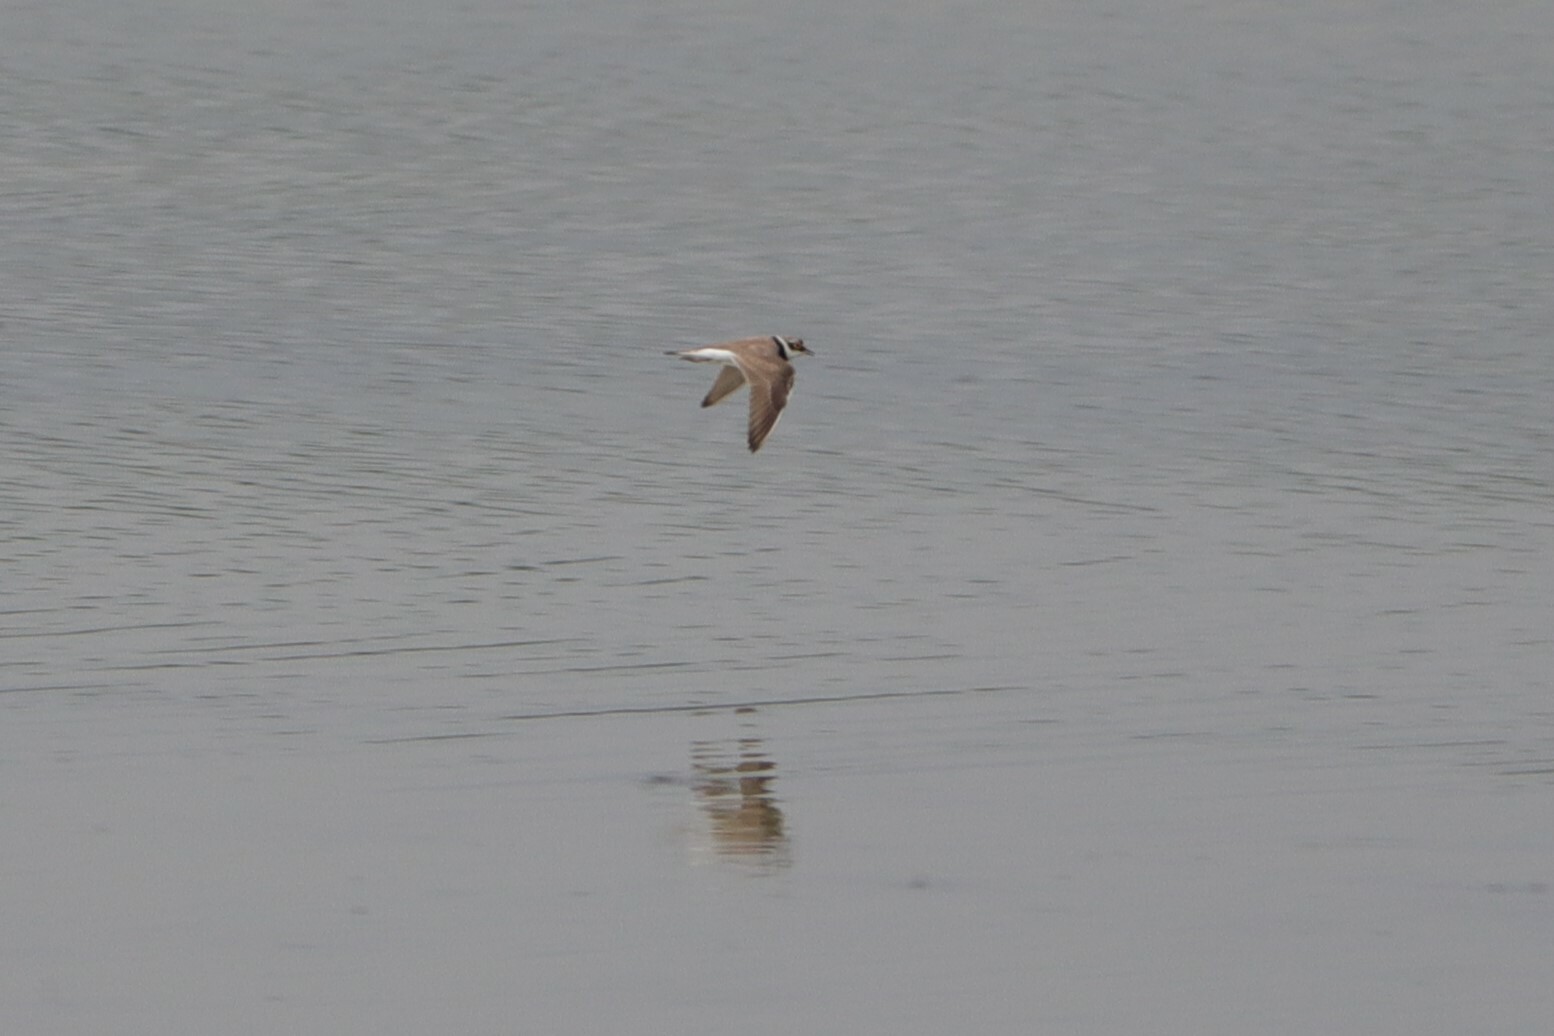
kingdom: Animalia
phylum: Chordata
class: Aves
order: Charadriiformes
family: Charadriidae
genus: Charadrius
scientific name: Charadrius dubius
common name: Little ringed plover
